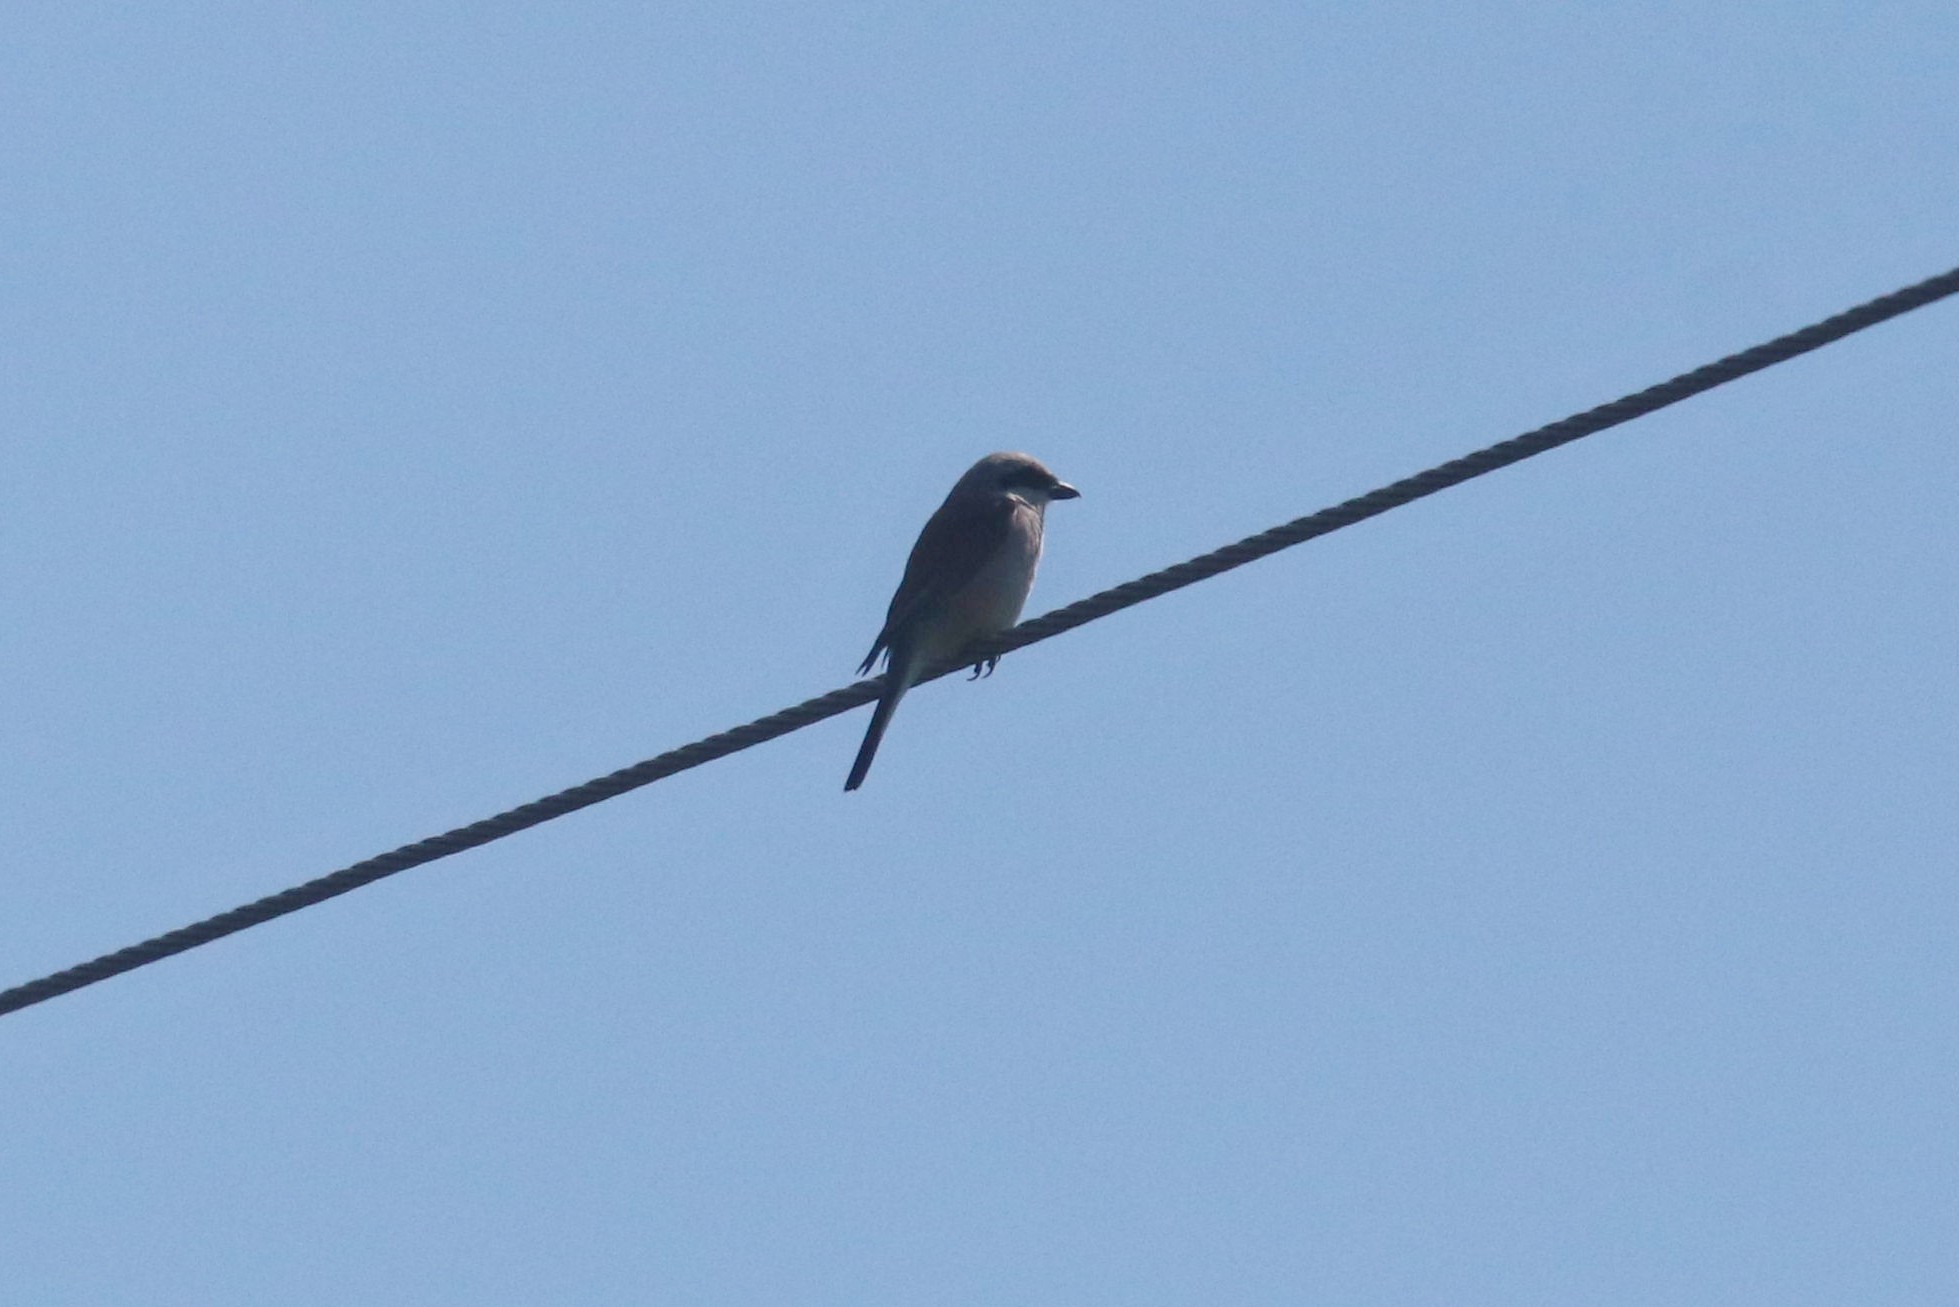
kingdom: Animalia
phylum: Chordata
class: Aves
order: Passeriformes
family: Laniidae
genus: Lanius
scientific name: Lanius collurio
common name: Red-backed shrike
